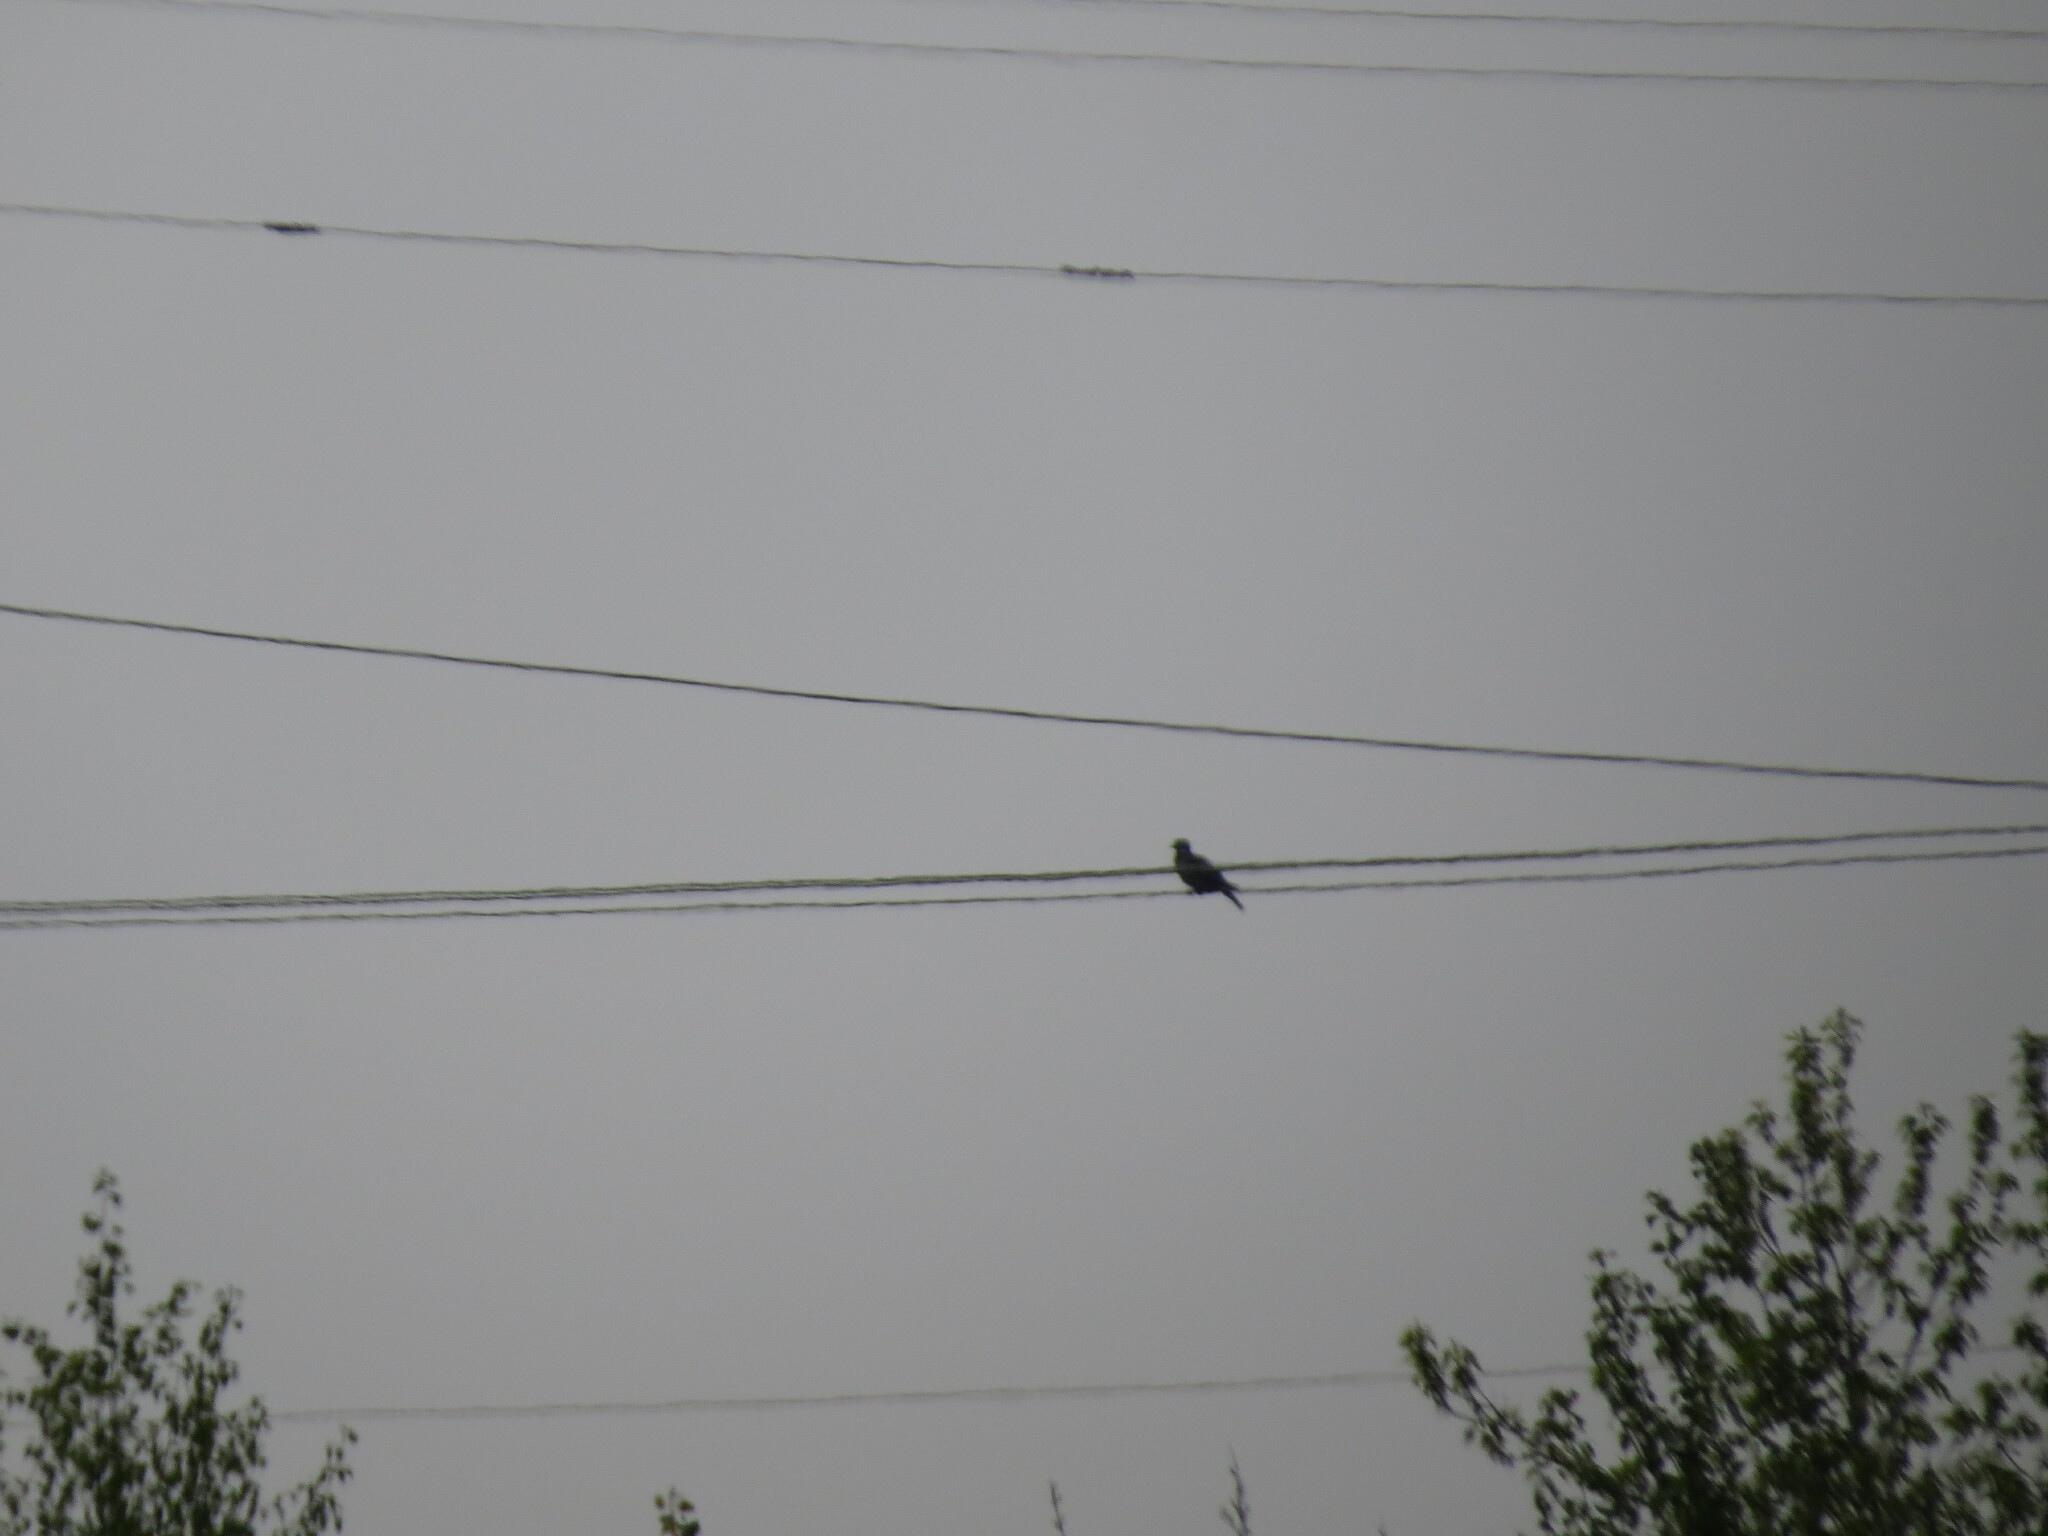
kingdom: Animalia
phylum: Chordata
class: Aves
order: Columbiformes
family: Columbidae
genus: Columba
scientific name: Columba palumbus
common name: Common wood pigeon
